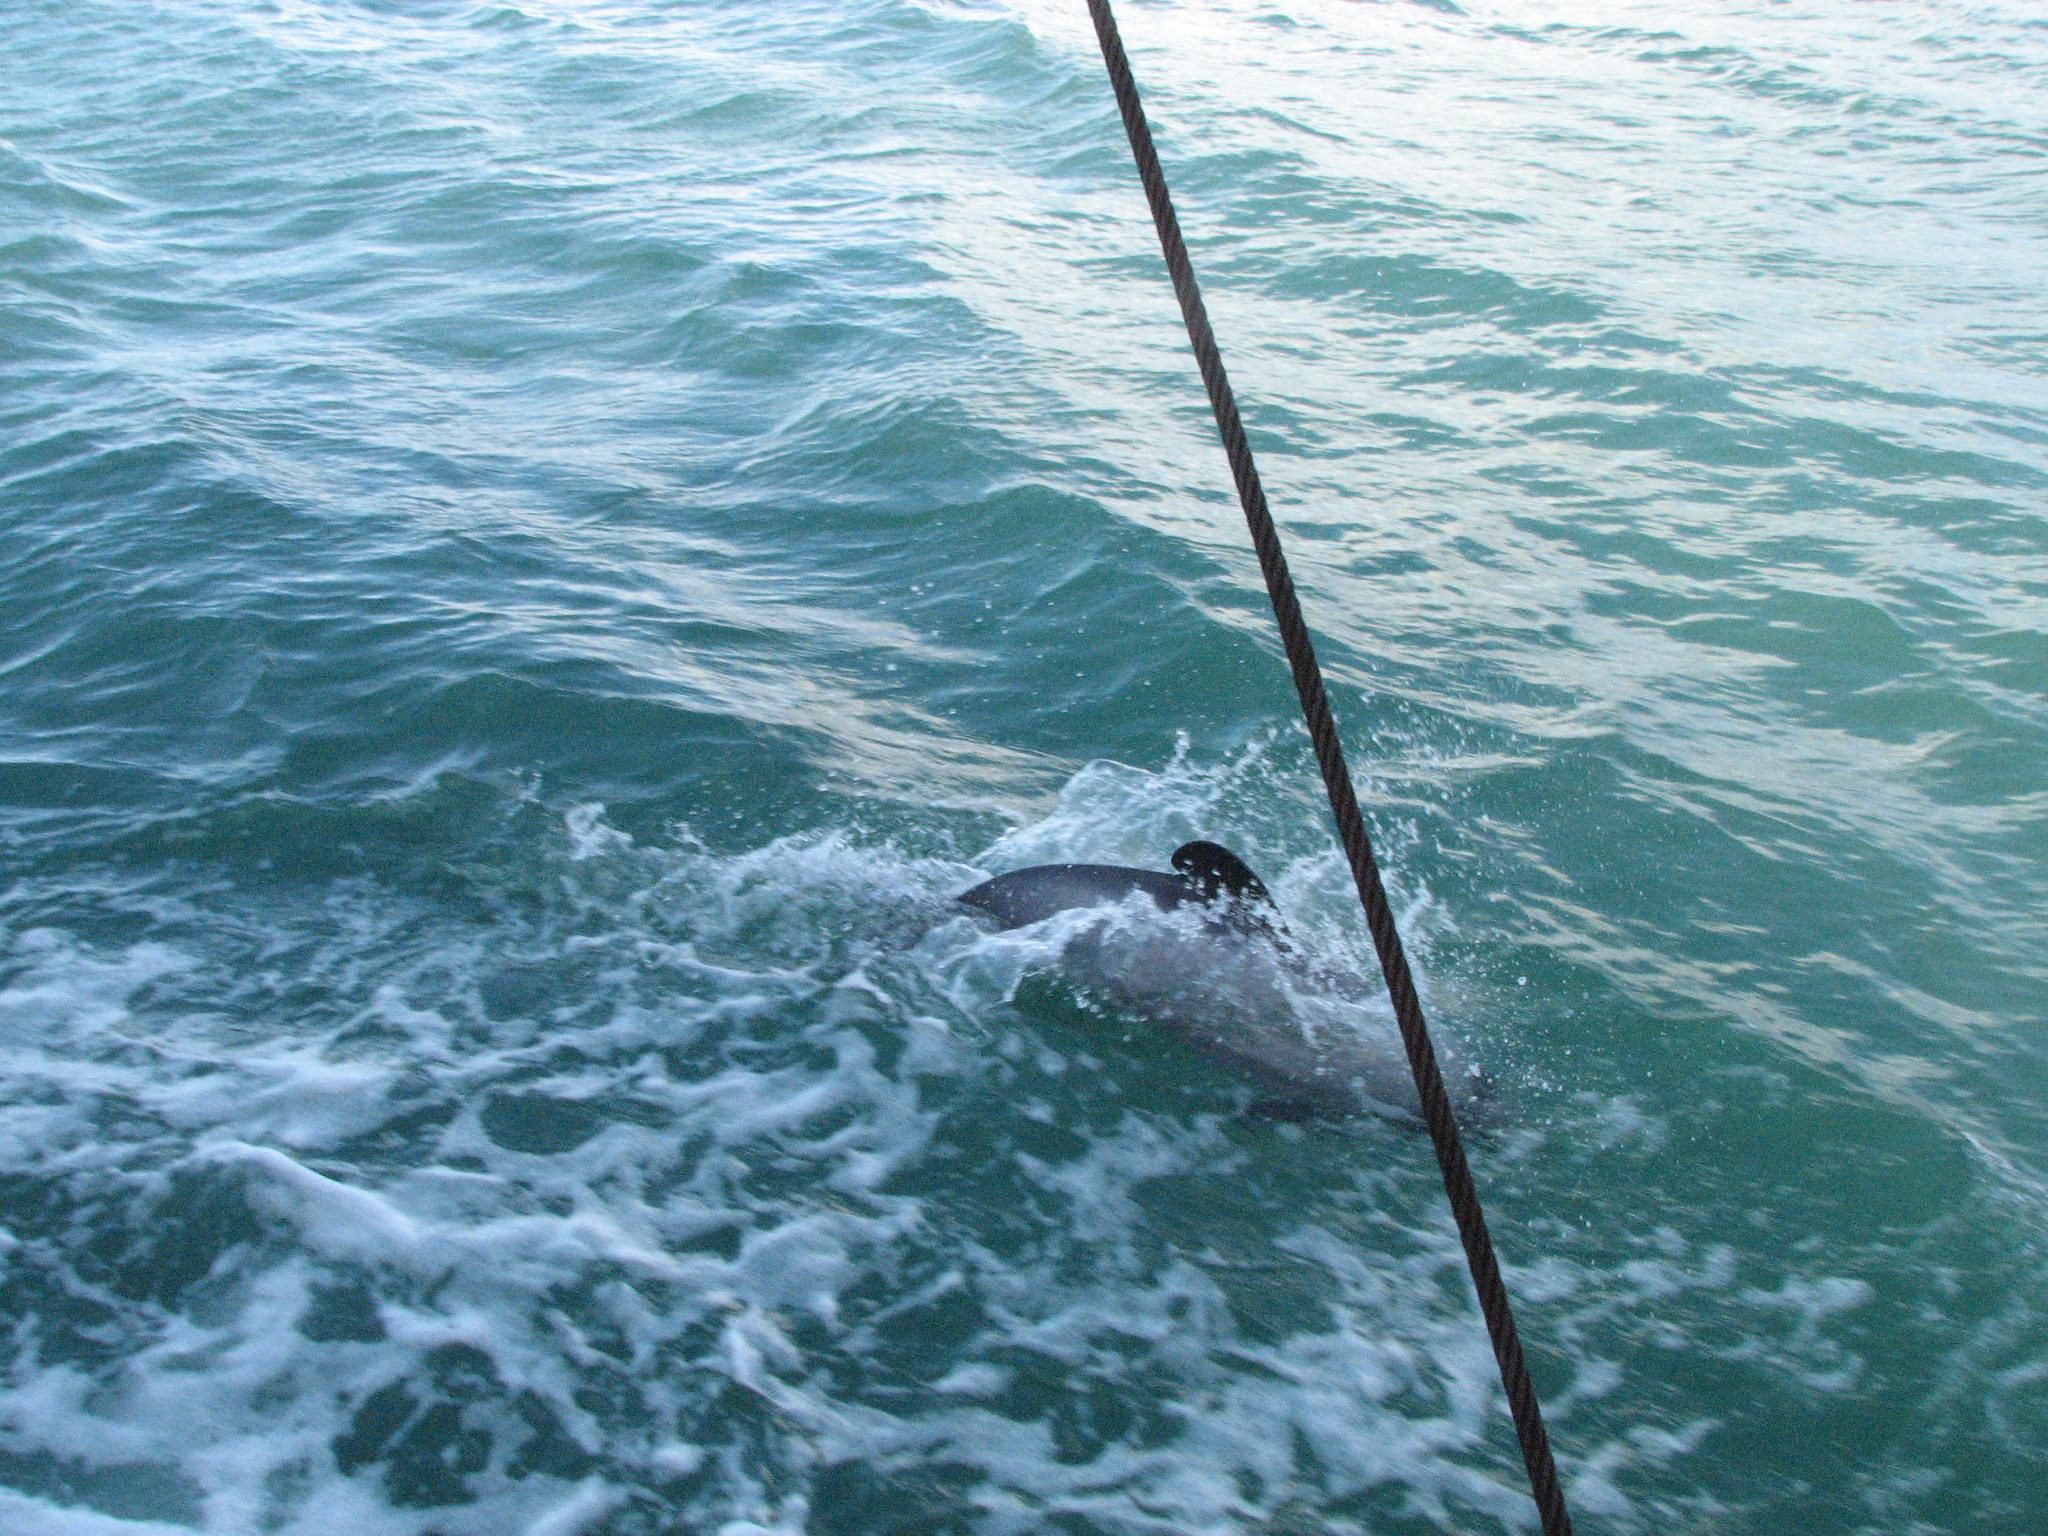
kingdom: Animalia
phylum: Chordata
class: Mammalia
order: Cetacea
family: Delphinidae
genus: Cephalorhynchus
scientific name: Cephalorhynchus hectori
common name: Hector's dolphin
